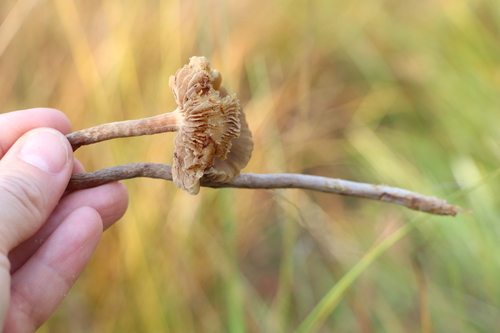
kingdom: Fungi
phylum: Basidiomycota
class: Agaricomycetes
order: Agaricales
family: Strophariaceae
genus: Hypholoma
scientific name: Hypholoma myosotis
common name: Olive brownie
